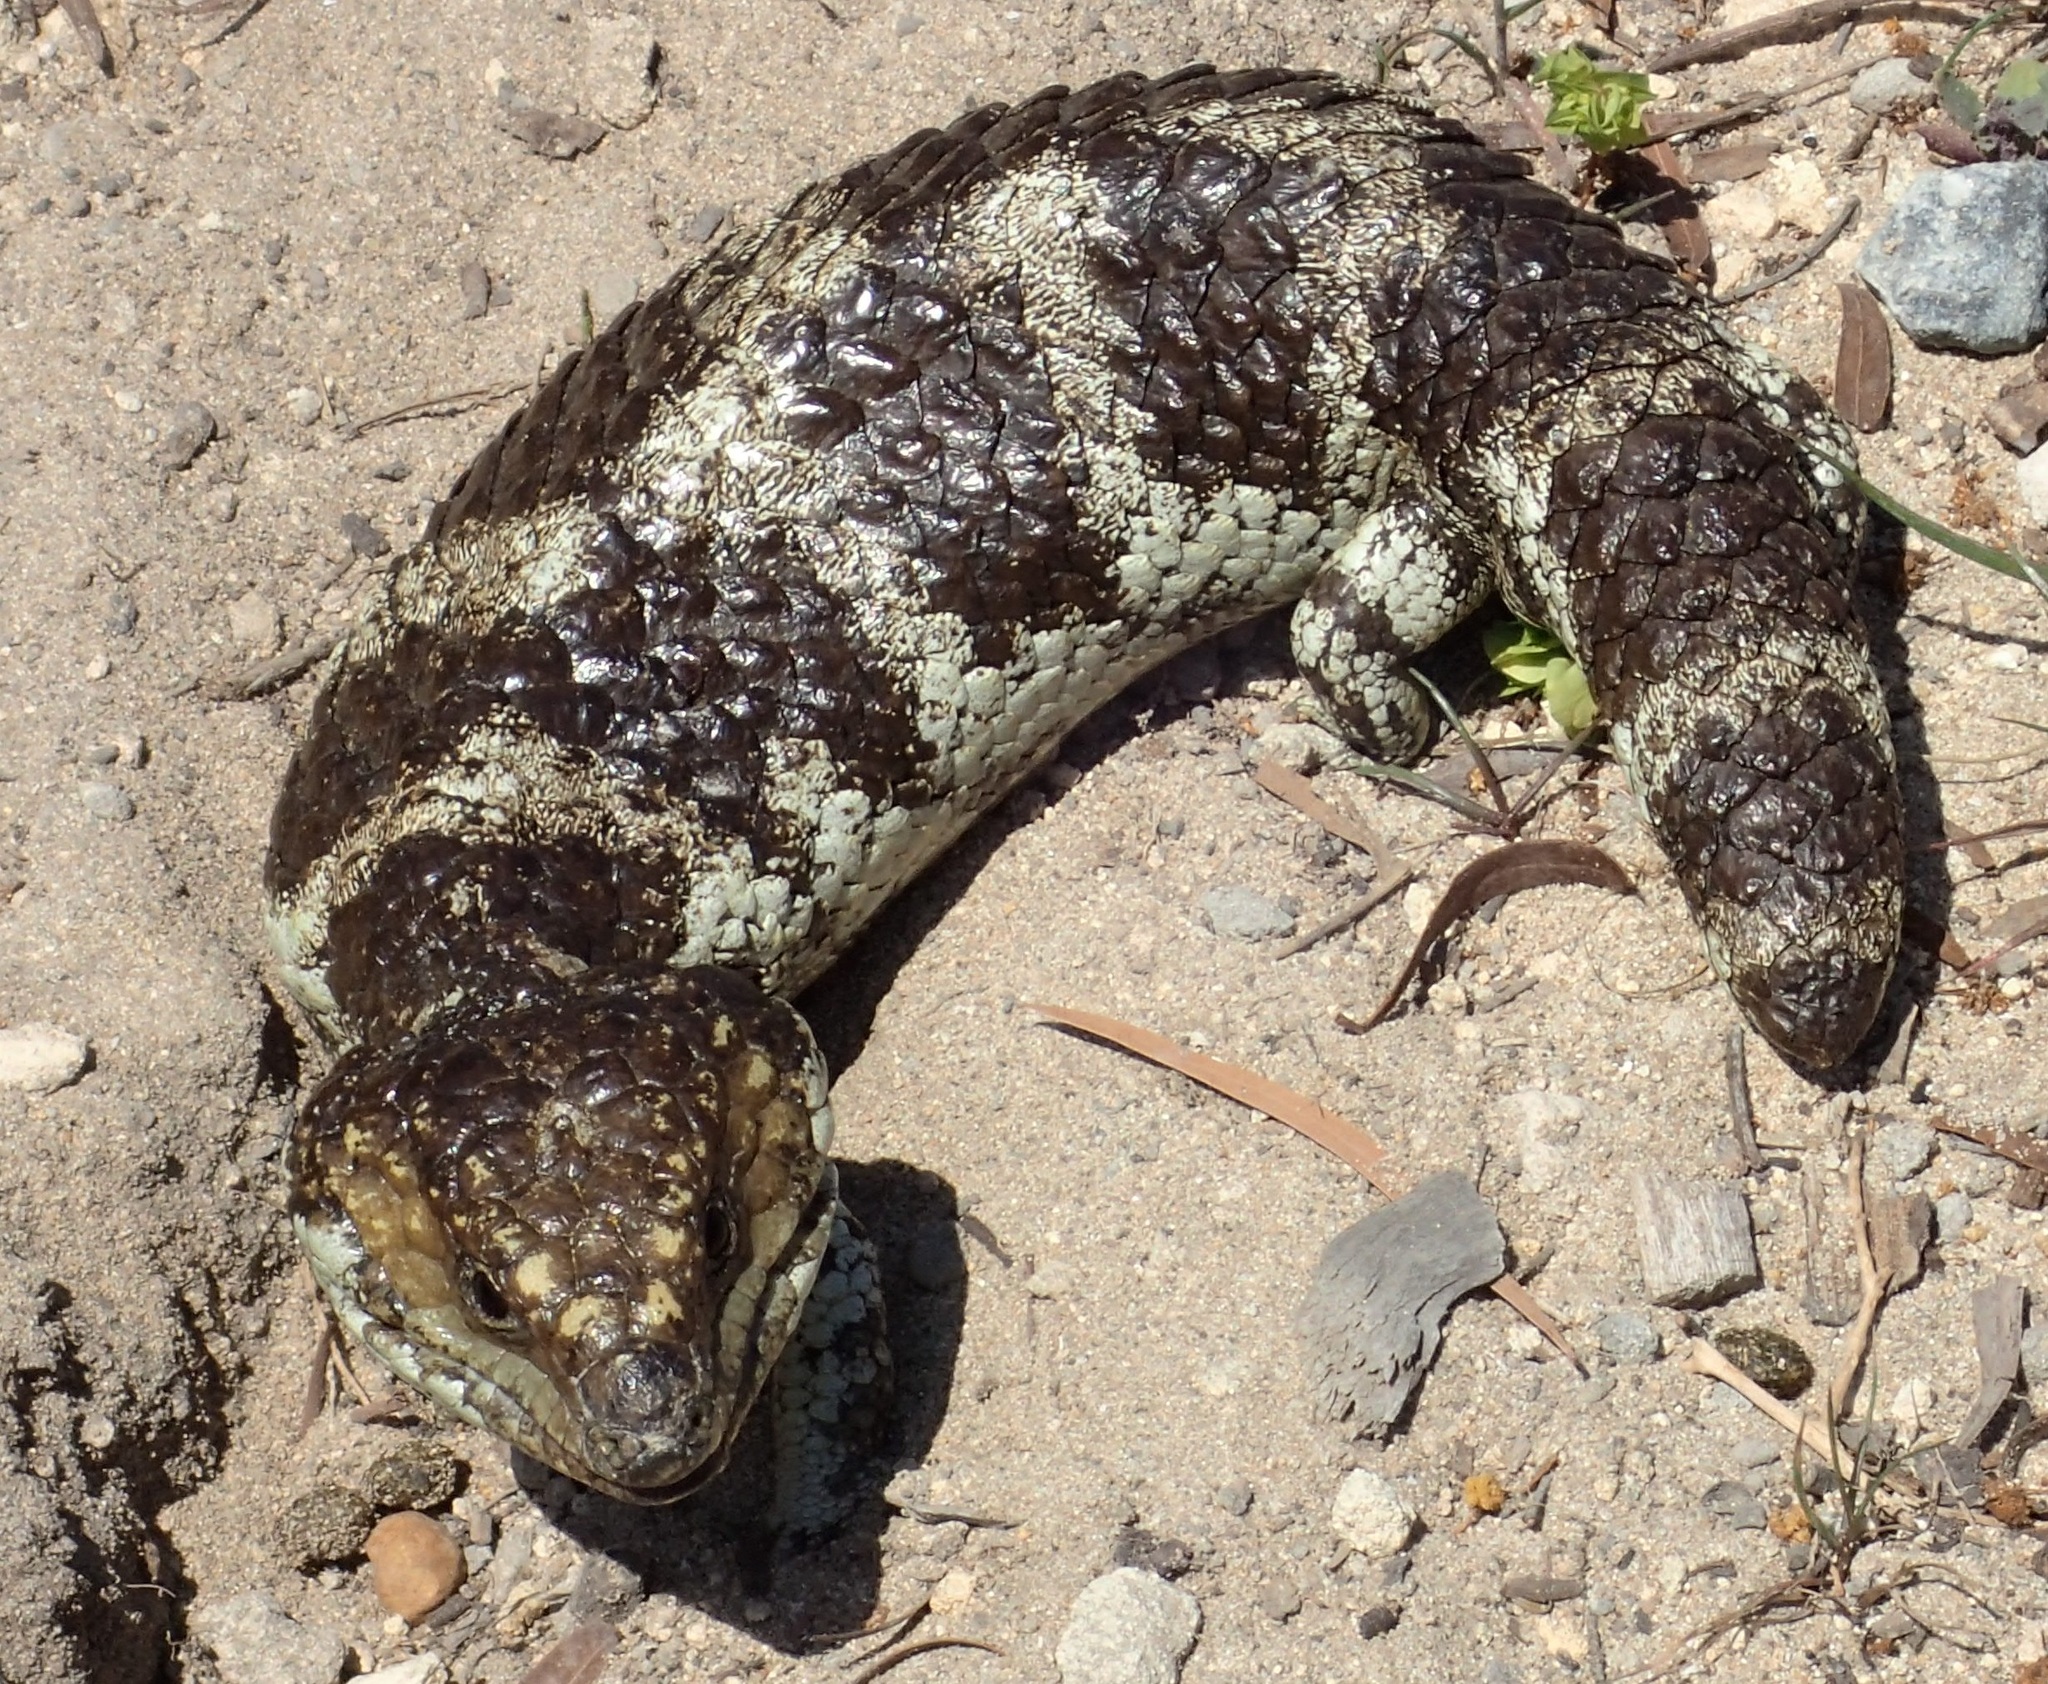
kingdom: Animalia
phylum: Chordata
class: Squamata
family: Scincidae
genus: Tiliqua
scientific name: Tiliqua rugosa
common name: Pinecone lizard
